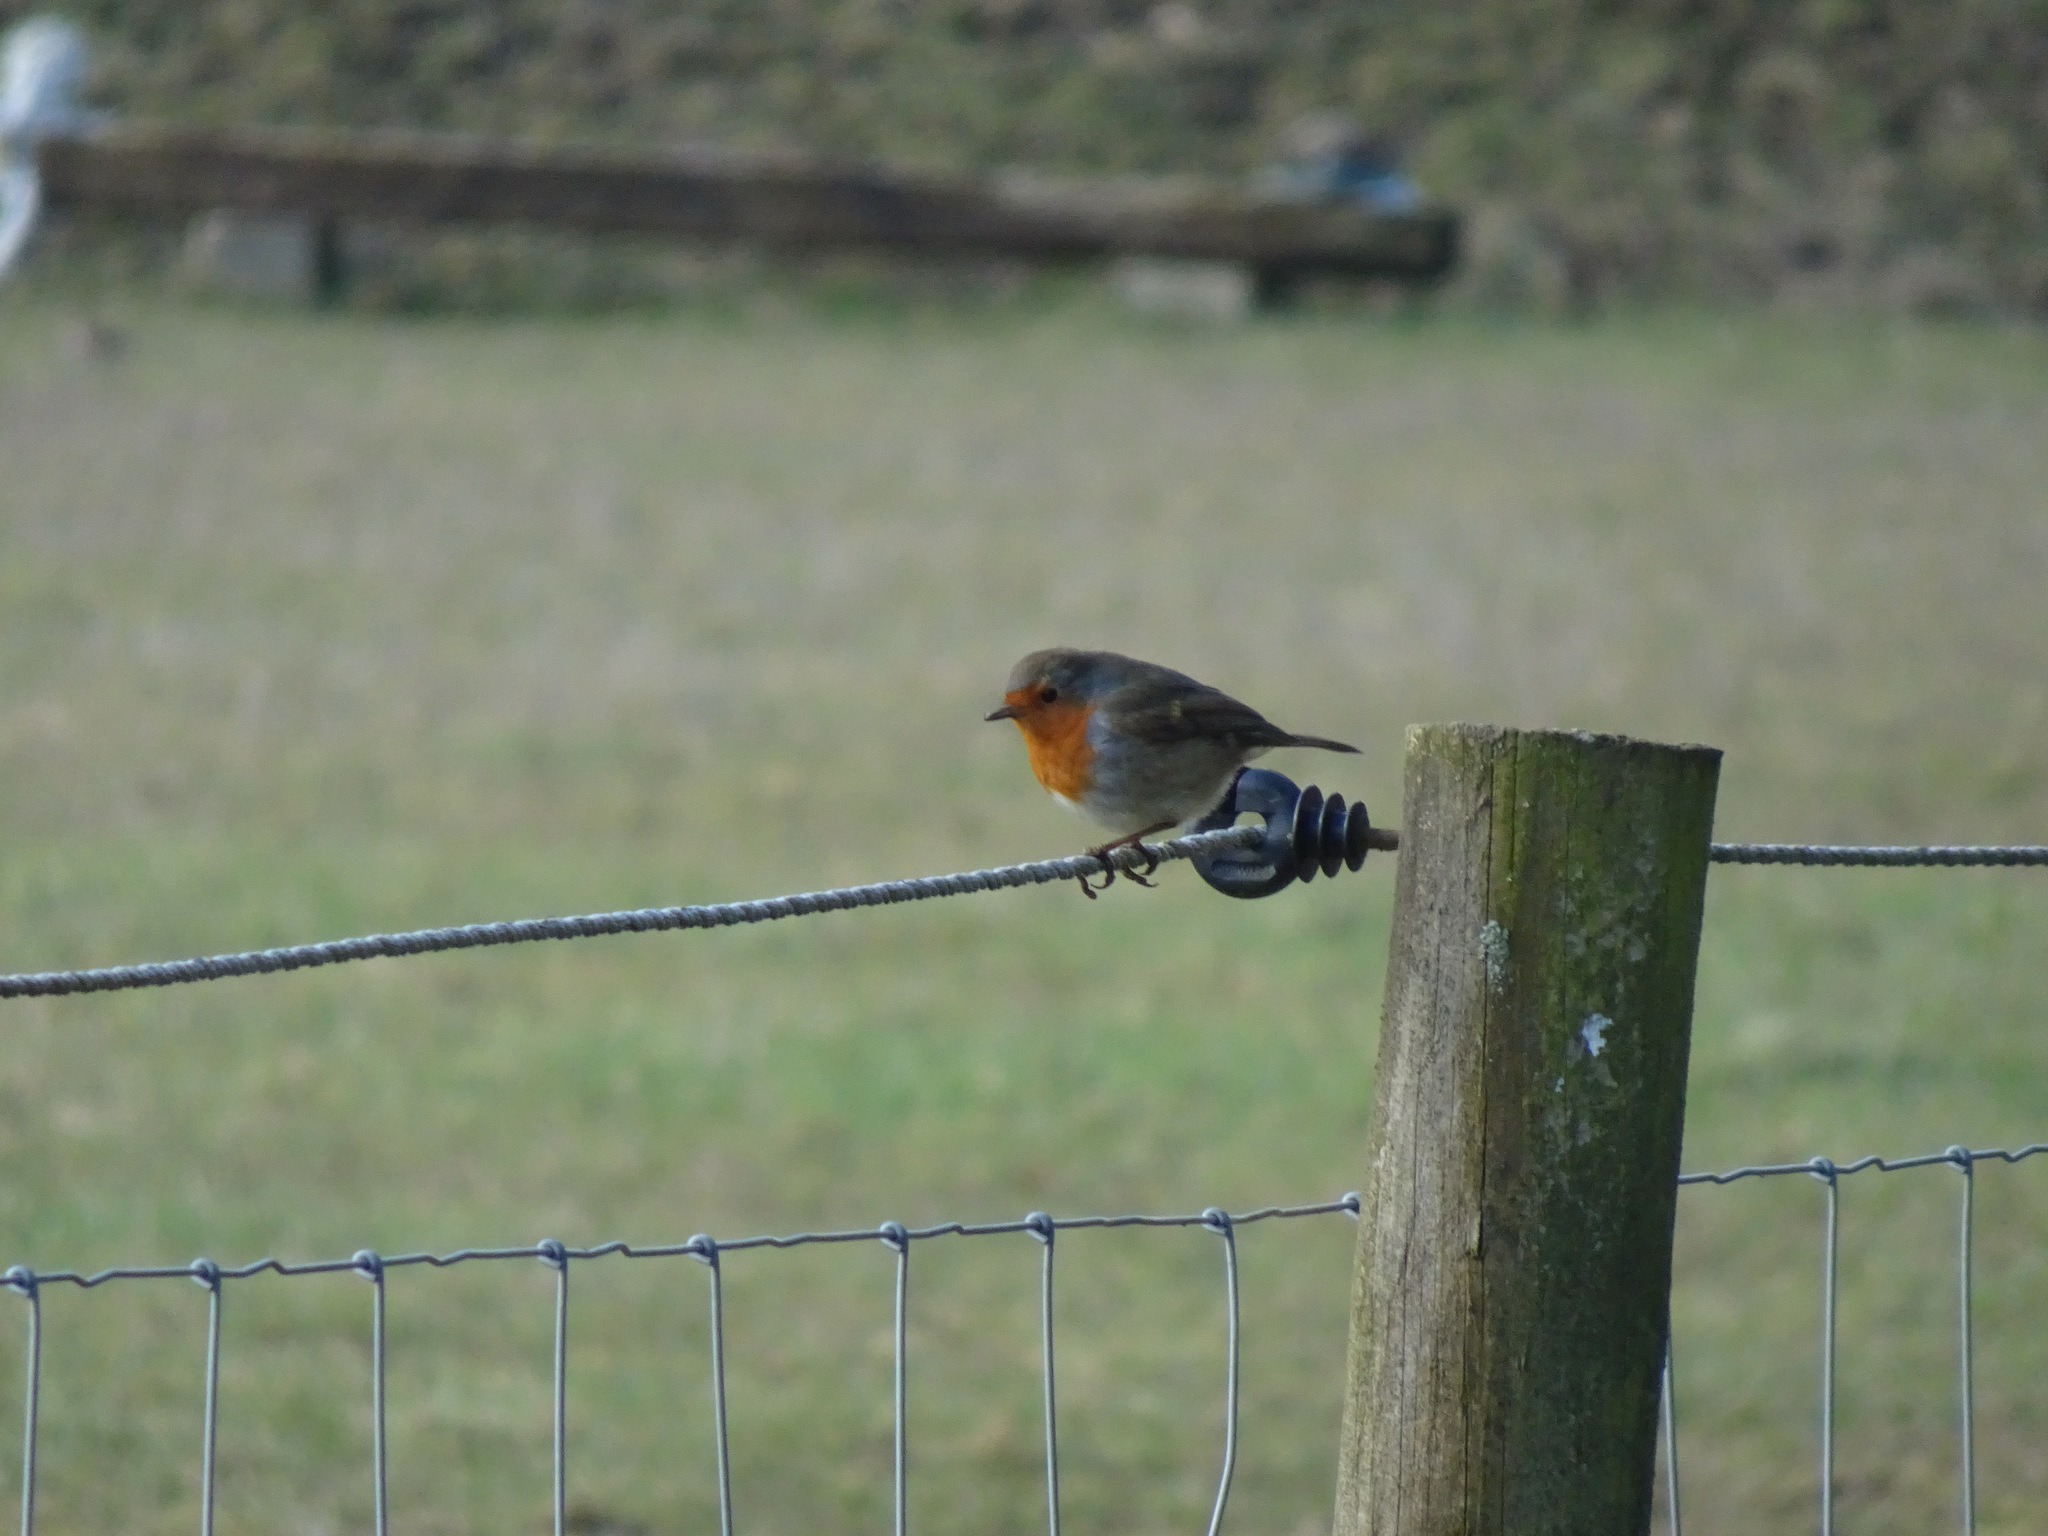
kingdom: Animalia
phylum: Chordata
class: Aves
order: Passeriformes
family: Muscicapidae
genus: Erithacus
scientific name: Erithacus rubecula
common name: European robin
